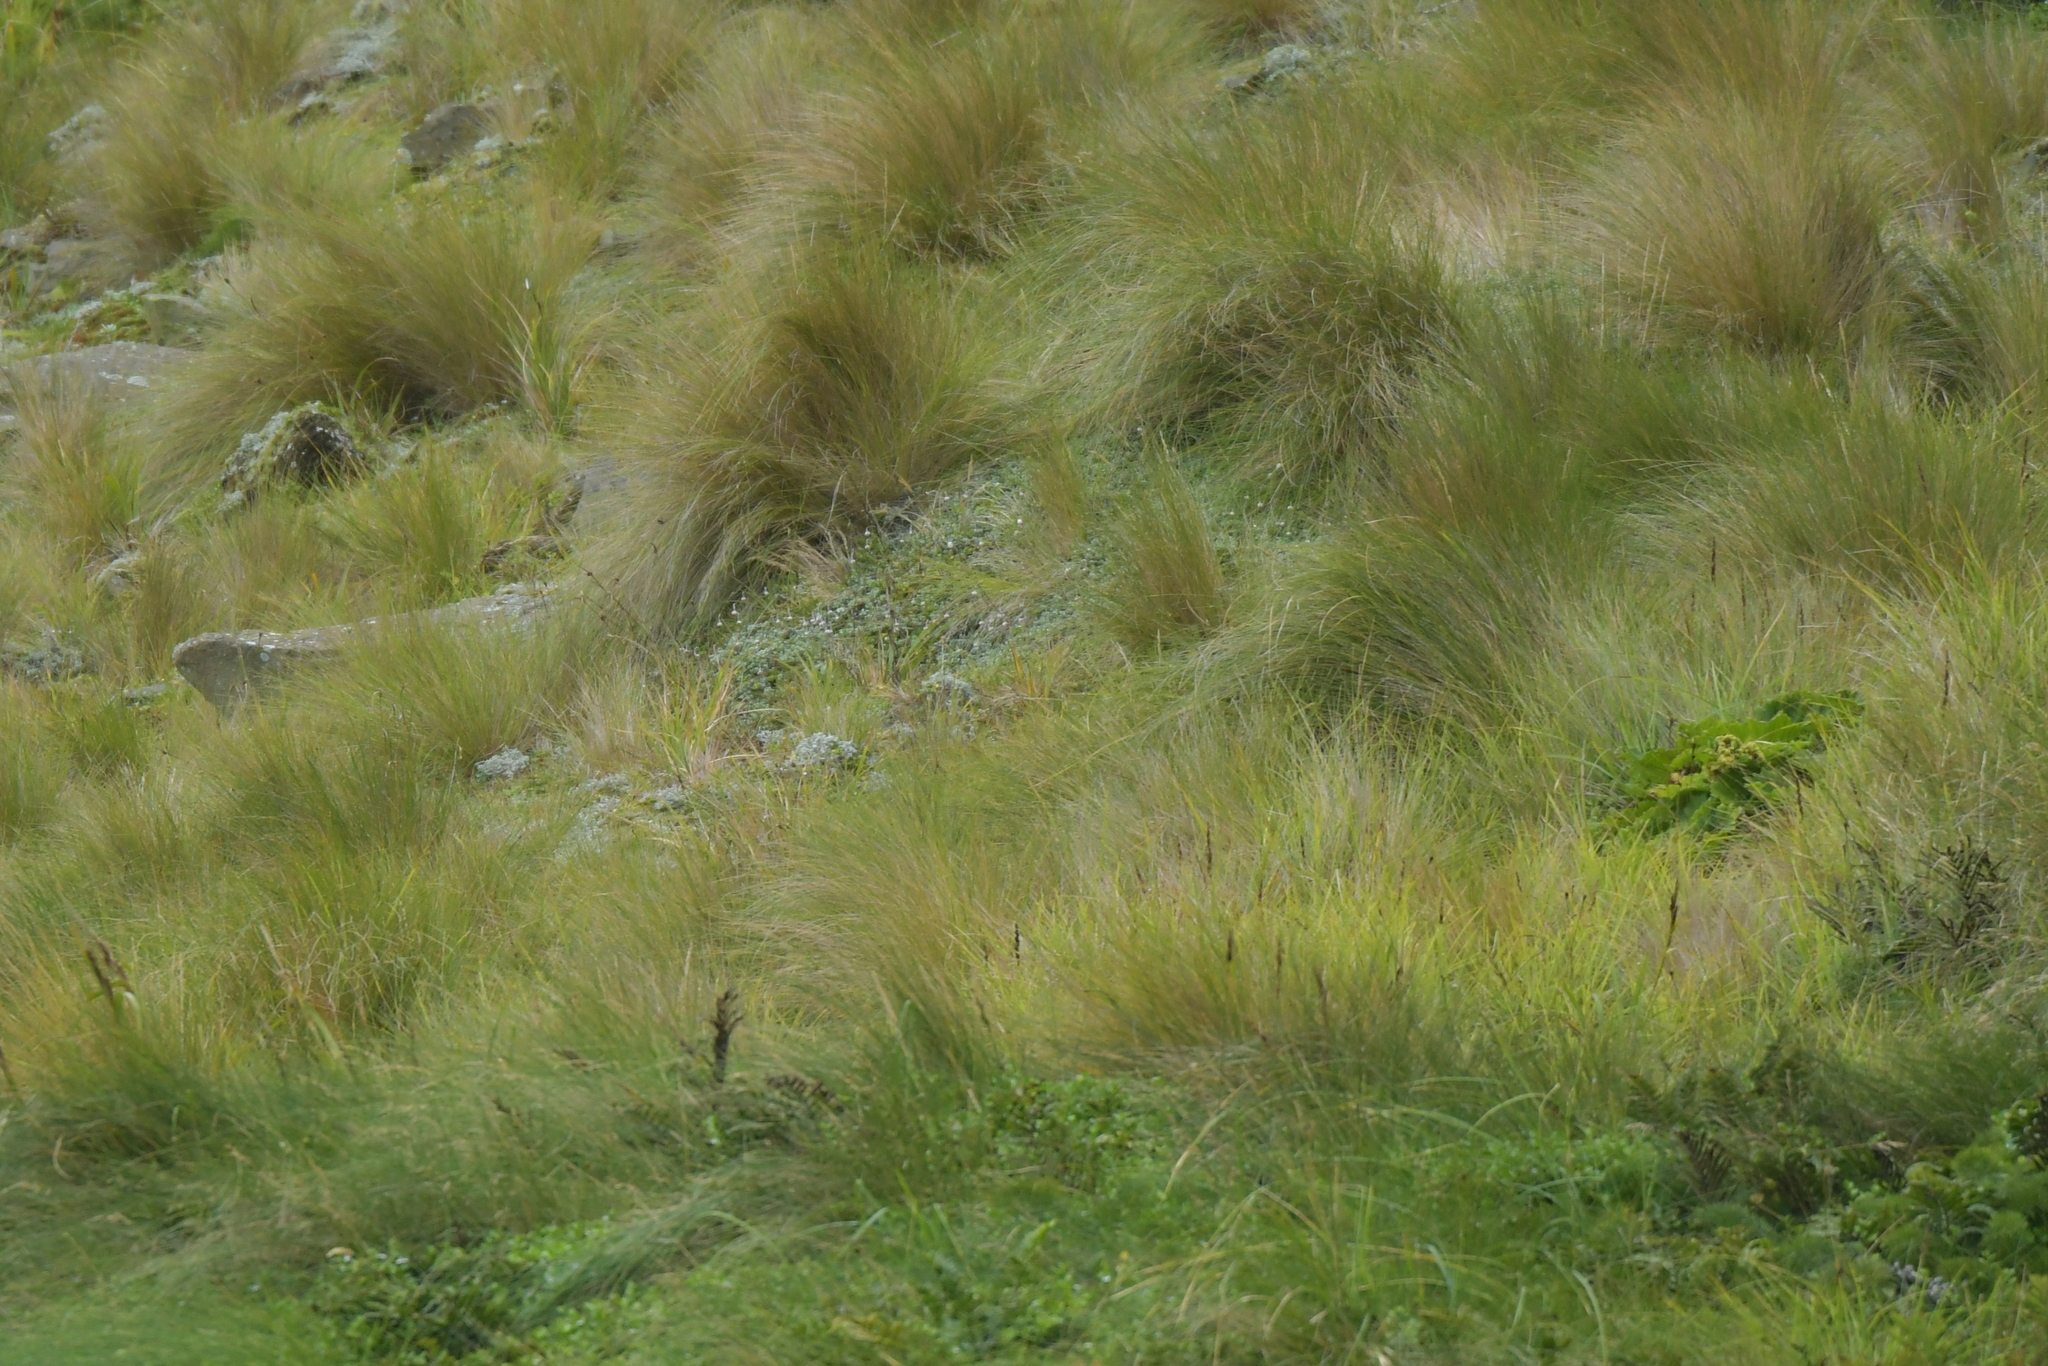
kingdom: Plantae
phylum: Tracheophyta
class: Magnoliopsida
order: Asterales
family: Asteraceae
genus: Anaphalioides
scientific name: Anaphalioides bellidioides
